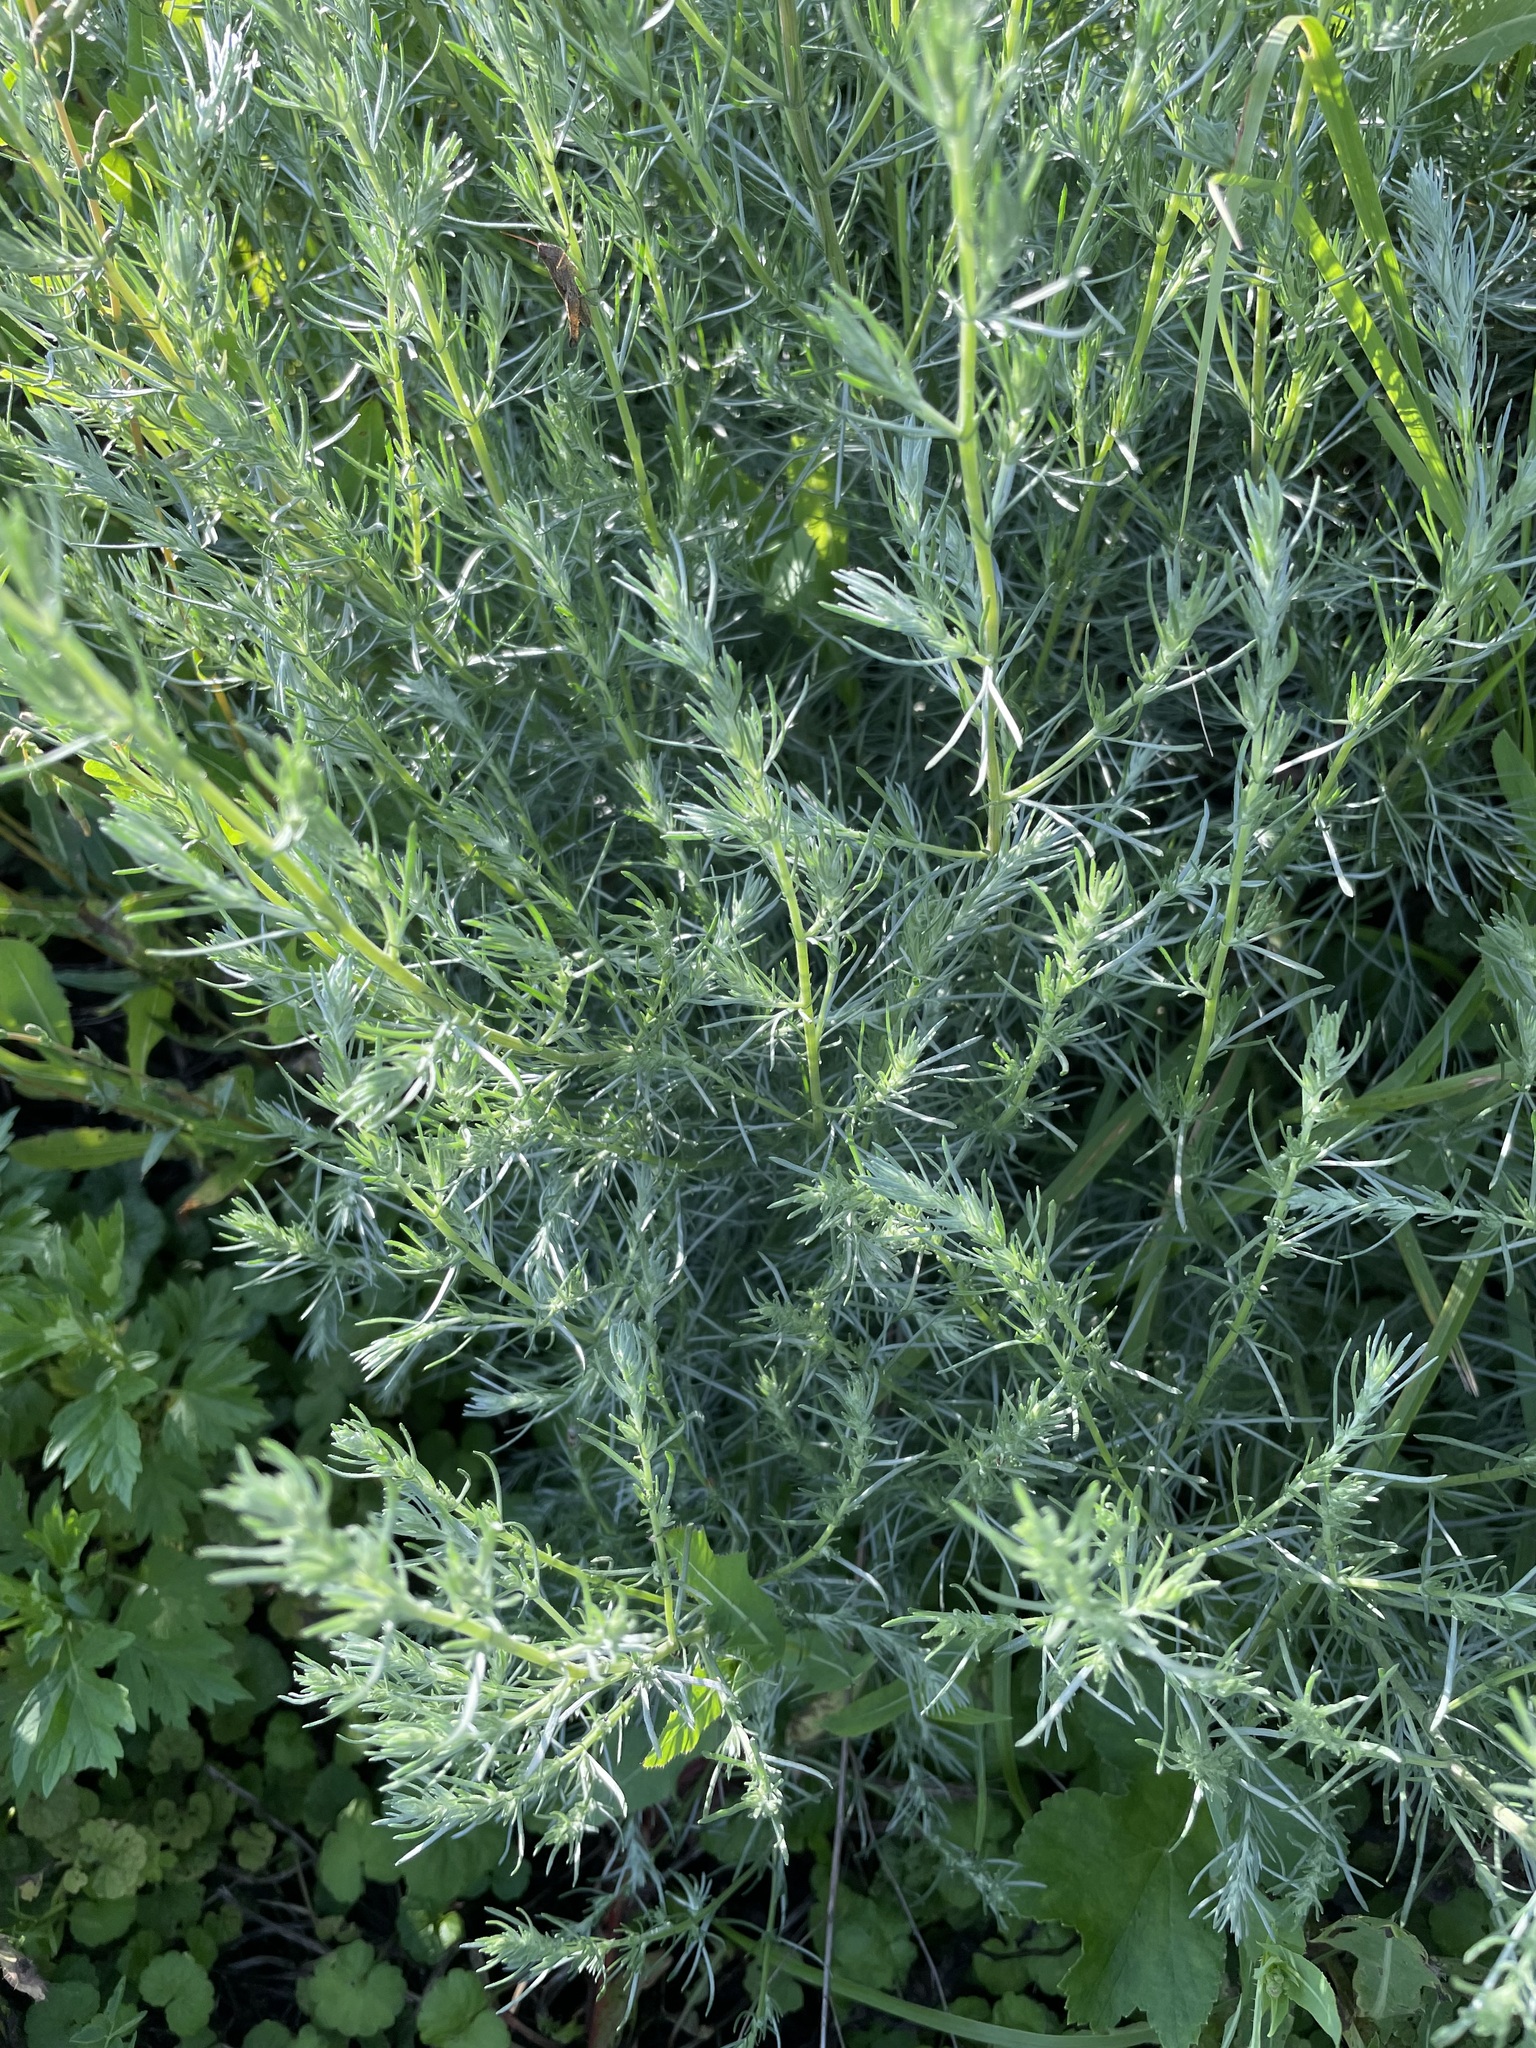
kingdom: Plantae
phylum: Tracheophyta
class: Magnoliopsida
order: Asterales
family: Asteraceae
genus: Artemisia
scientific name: Artemisia campestris
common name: Field wormwood
